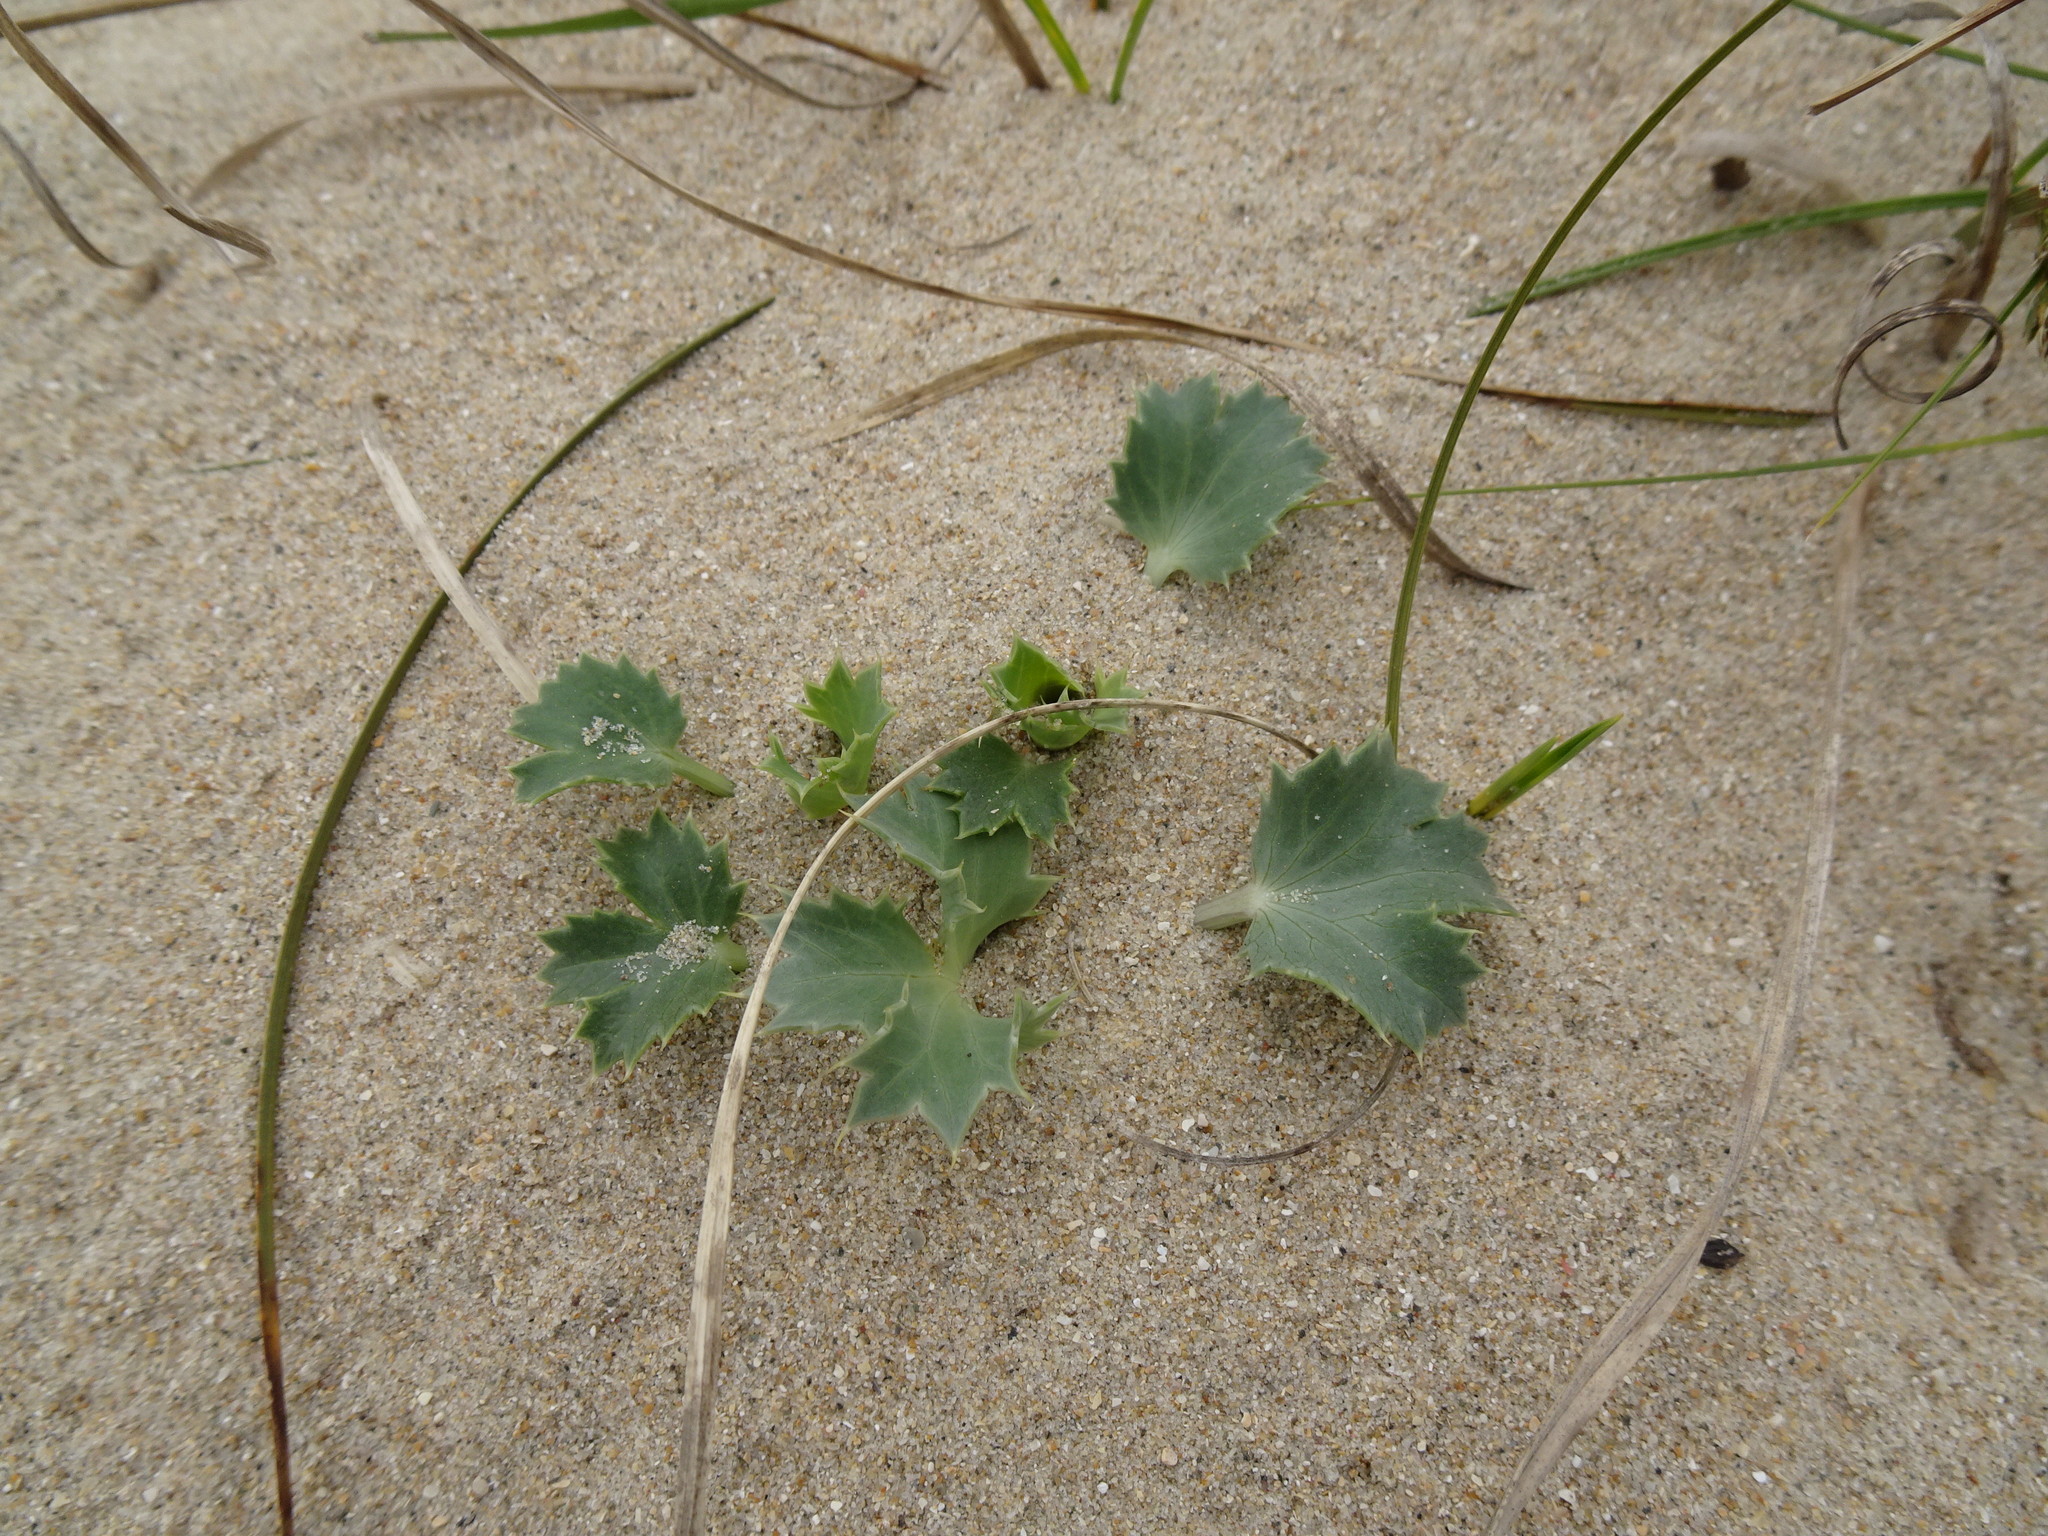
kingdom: Plantae
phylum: Tracheophyta
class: Magnoliopsida
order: Apiales
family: Apiaceae
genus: Eryngium
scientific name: Eryngium maritimum
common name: Sea-holly
